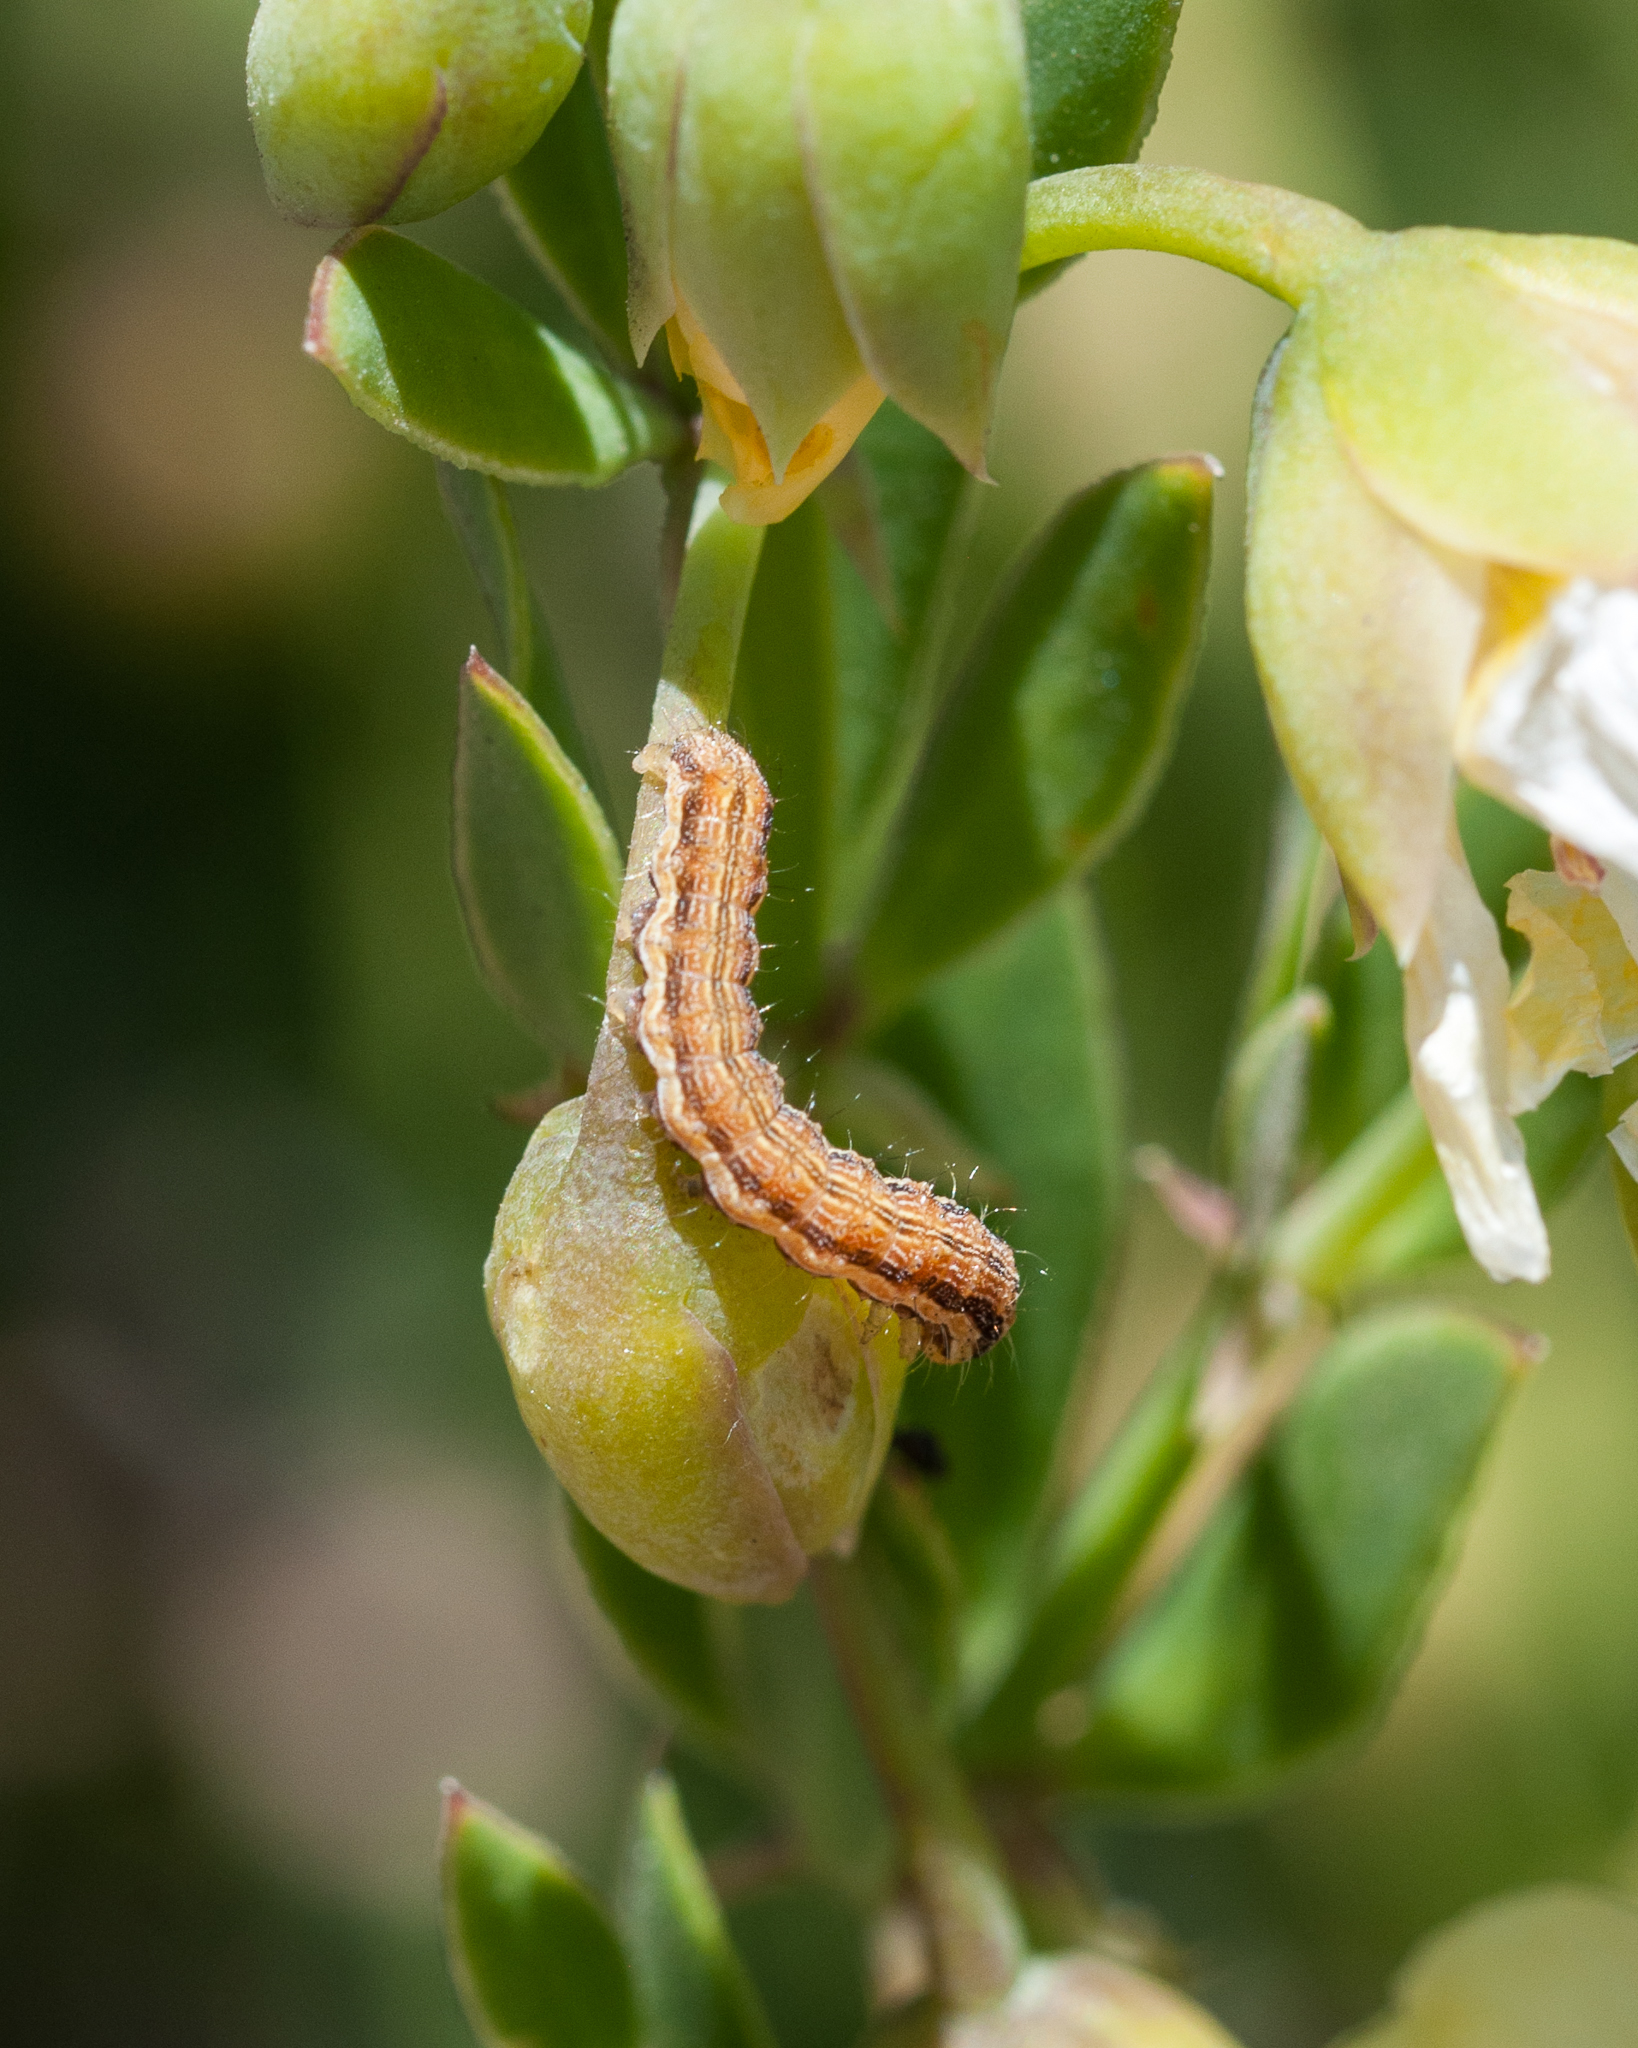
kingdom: Animalia
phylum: Arthropoda
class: Insecta
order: Lepidoptera
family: Noctuidae
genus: Helicoverpa
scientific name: Helicoverpa armigera
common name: Cotton bollworm
